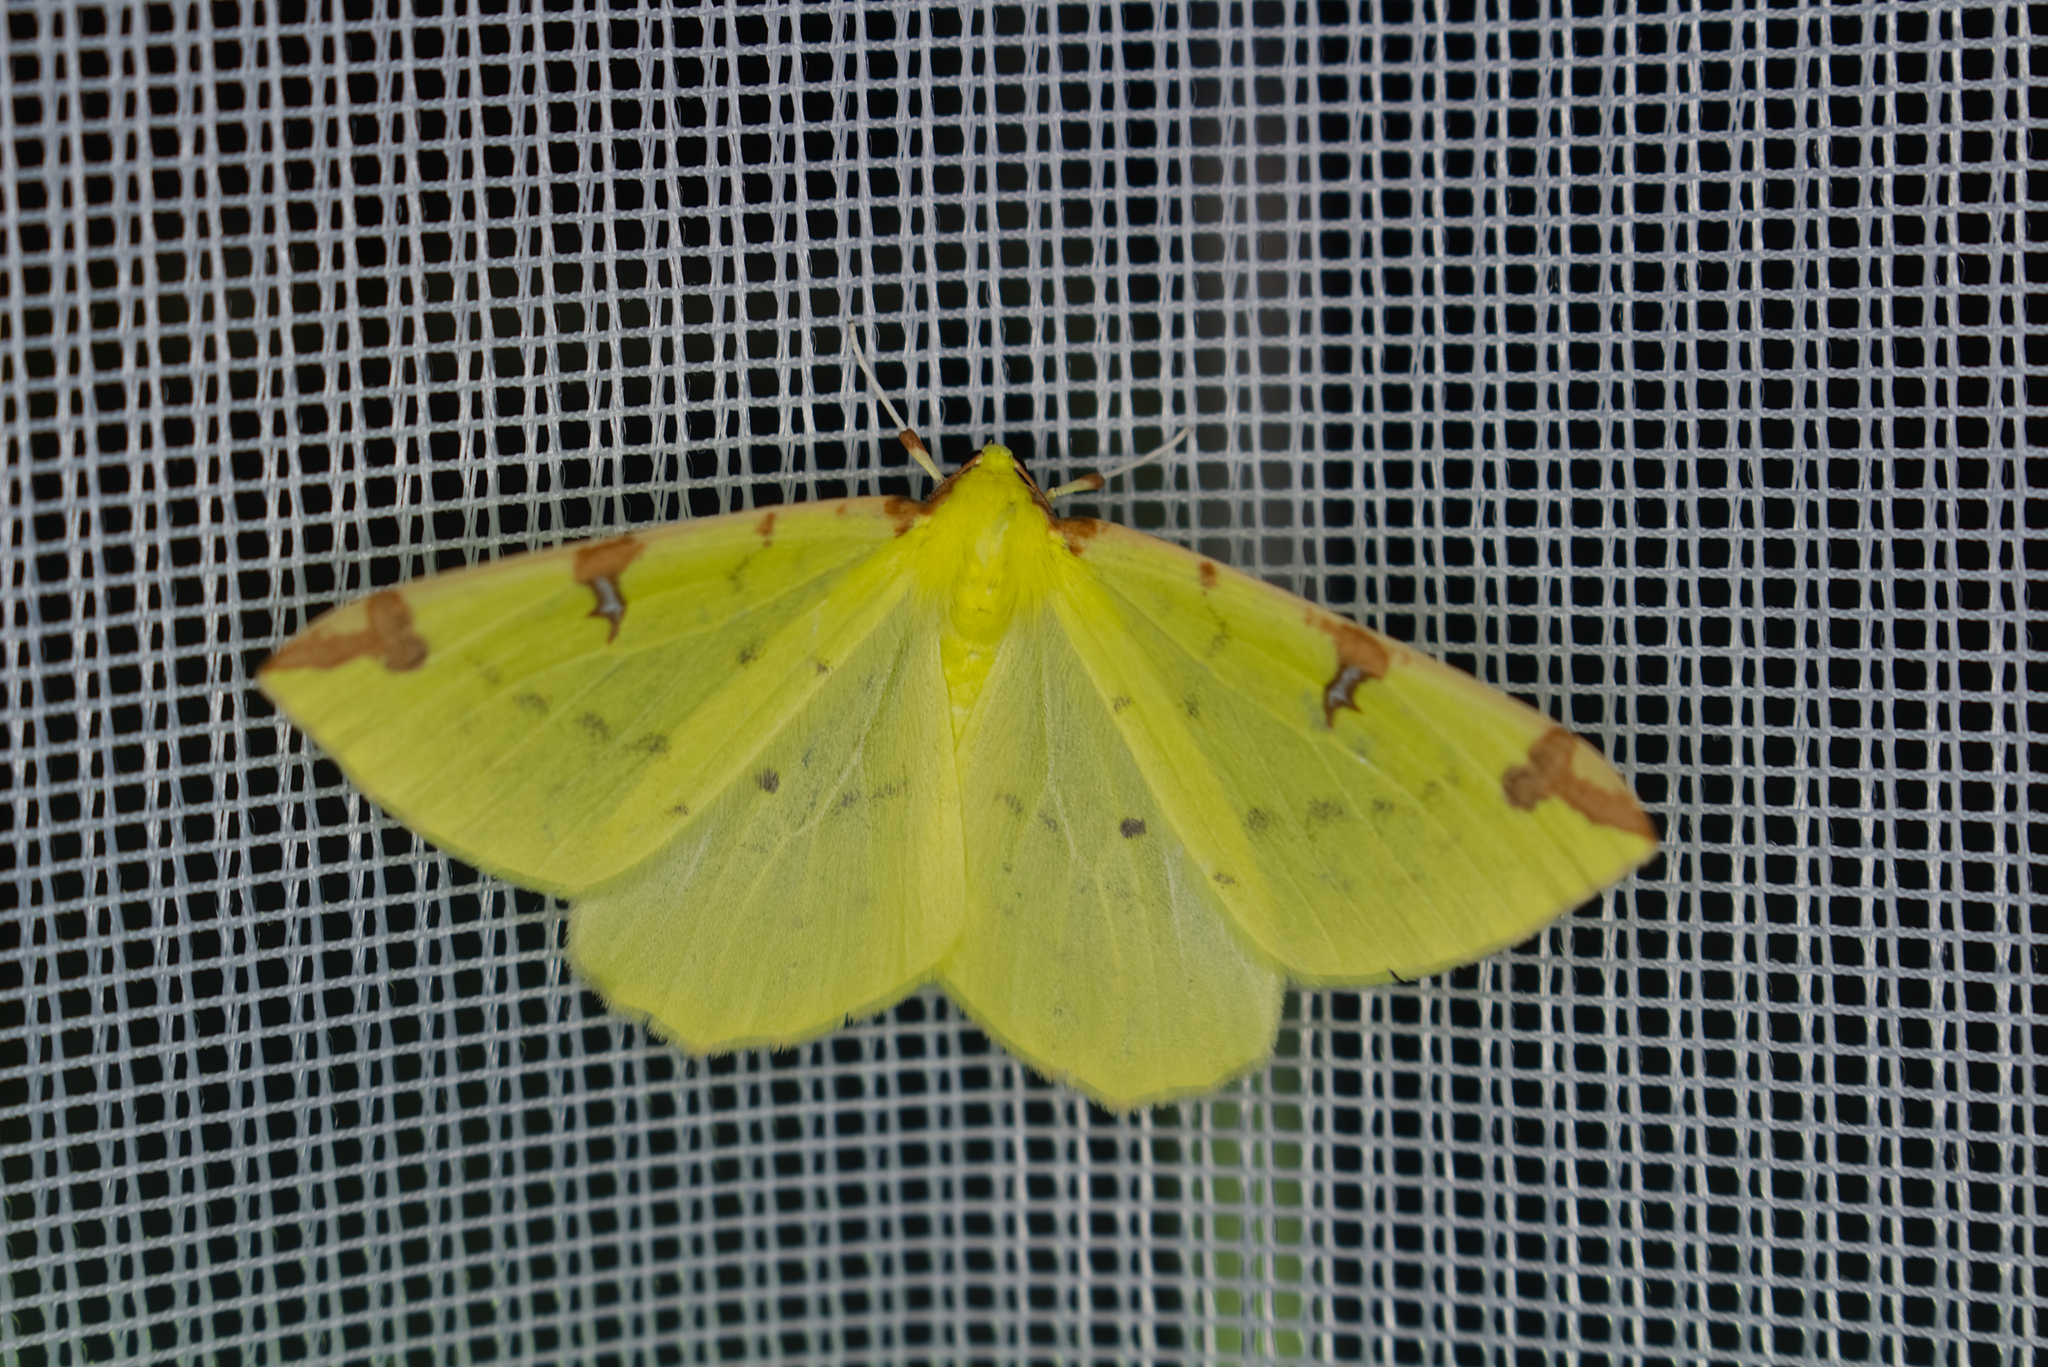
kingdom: Animalia
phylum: Arthropoda
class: Insecta
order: Lepidoptera
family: Geometridae
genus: Opisthograptis
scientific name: Opisthograptis luteolata
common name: Brimstone moth
